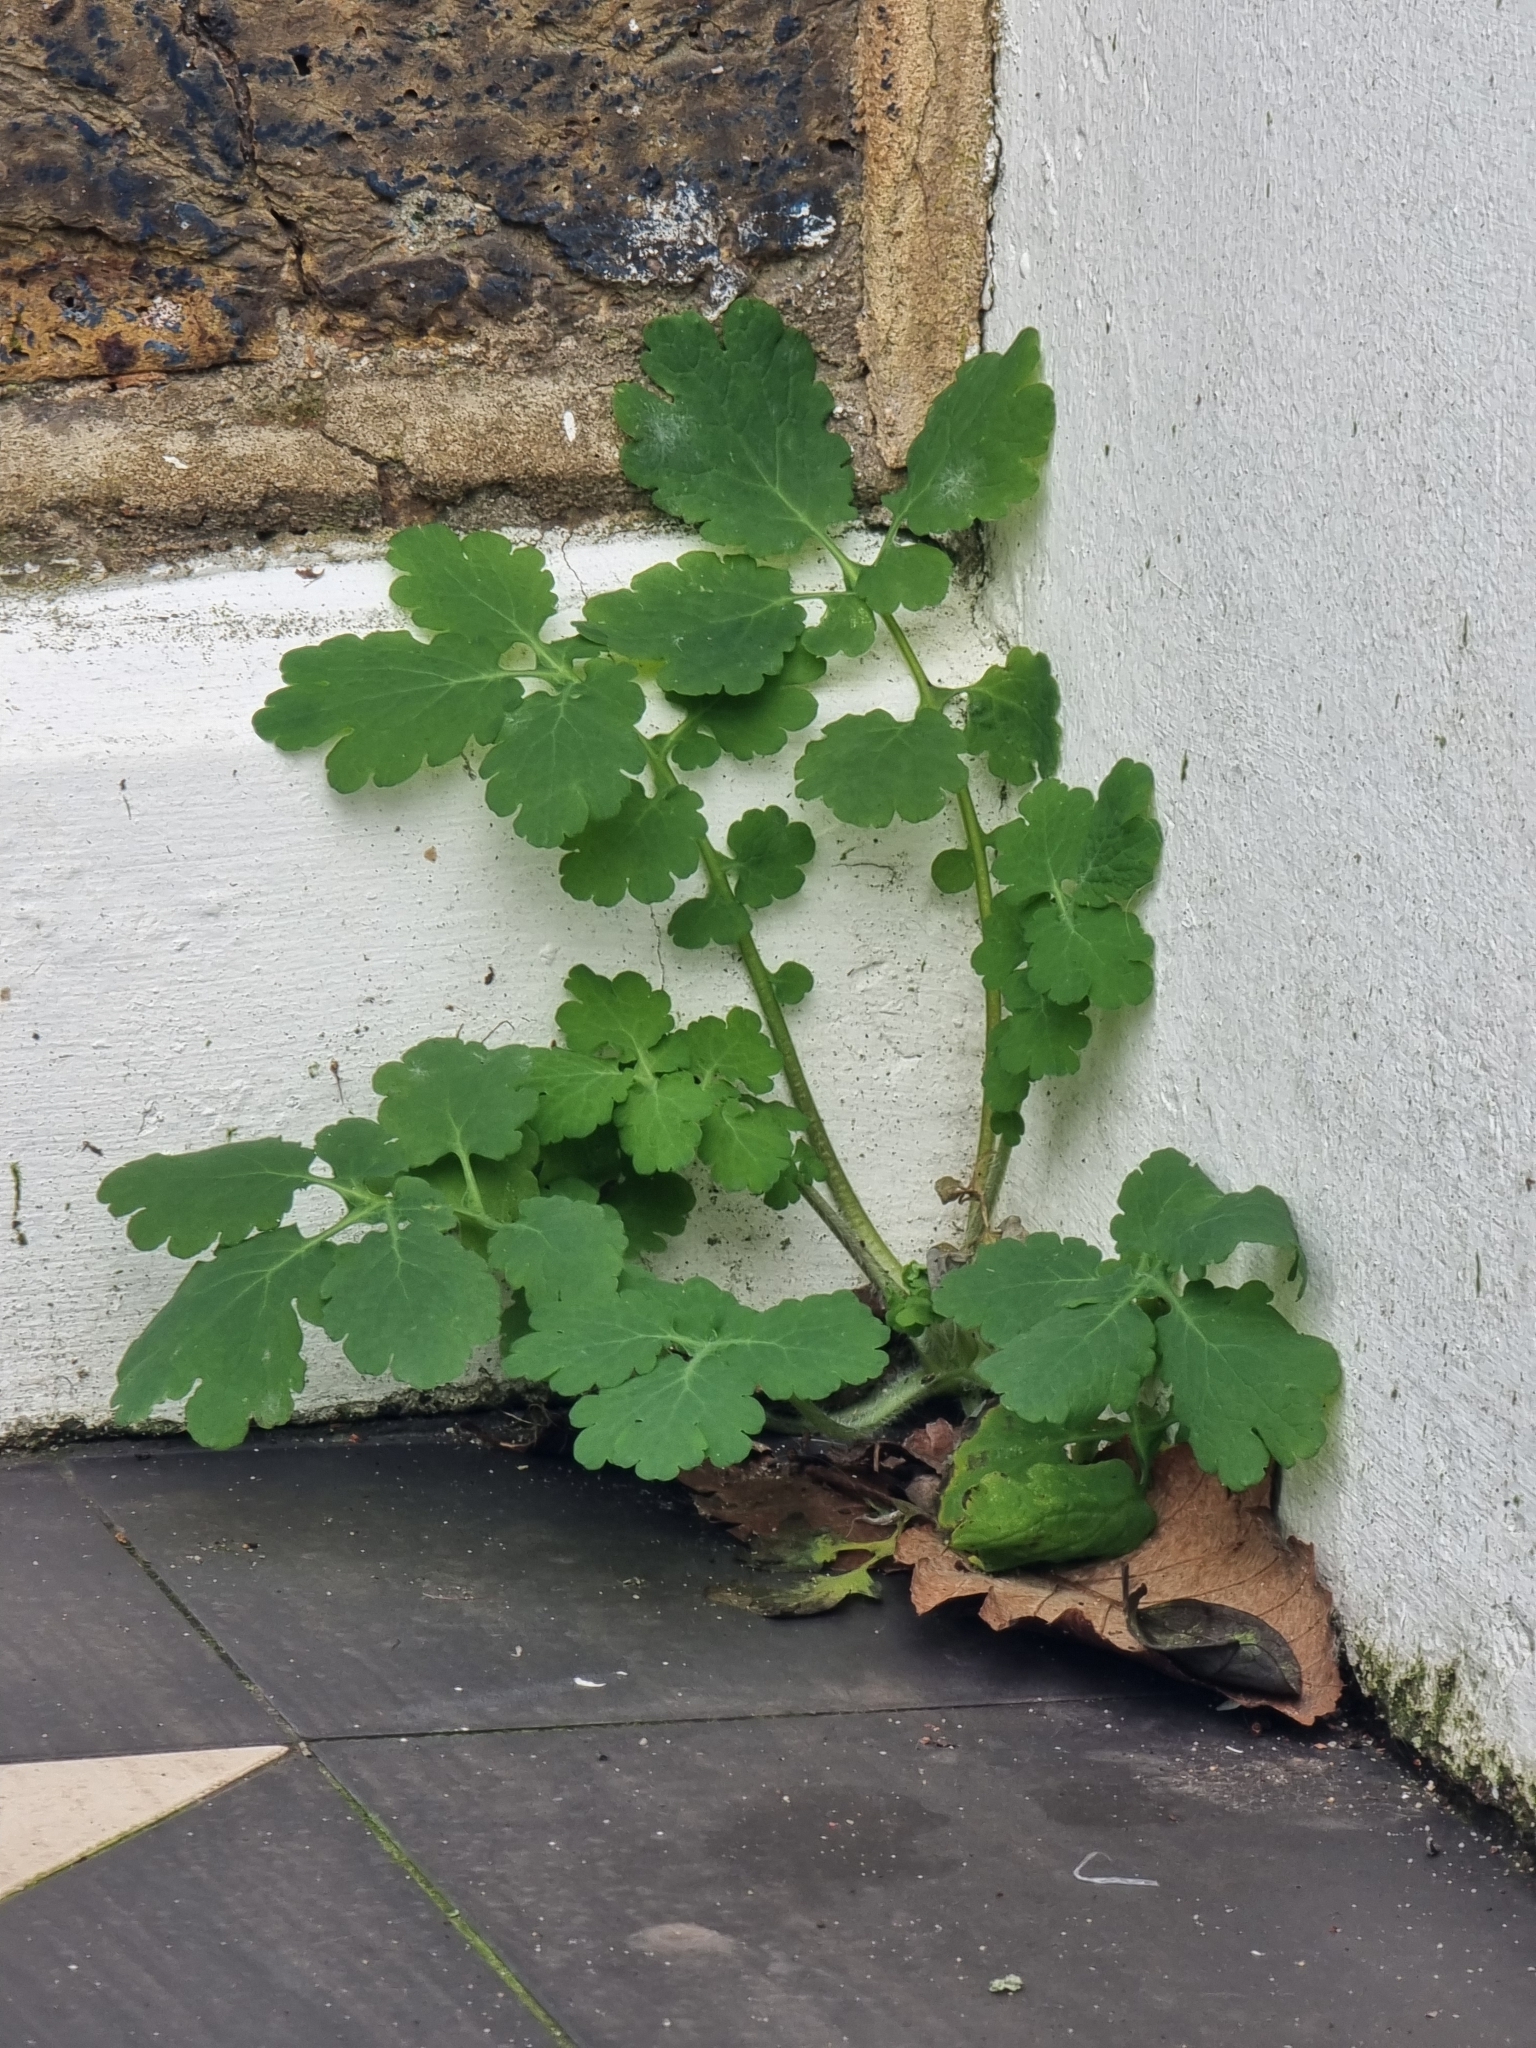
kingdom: Plantae
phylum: Tracheophyta
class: Magnoliopsida
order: Ranunculales
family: Papaveraceae
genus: Chelidonium
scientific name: Chelidonium majus
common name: Greater celandine
